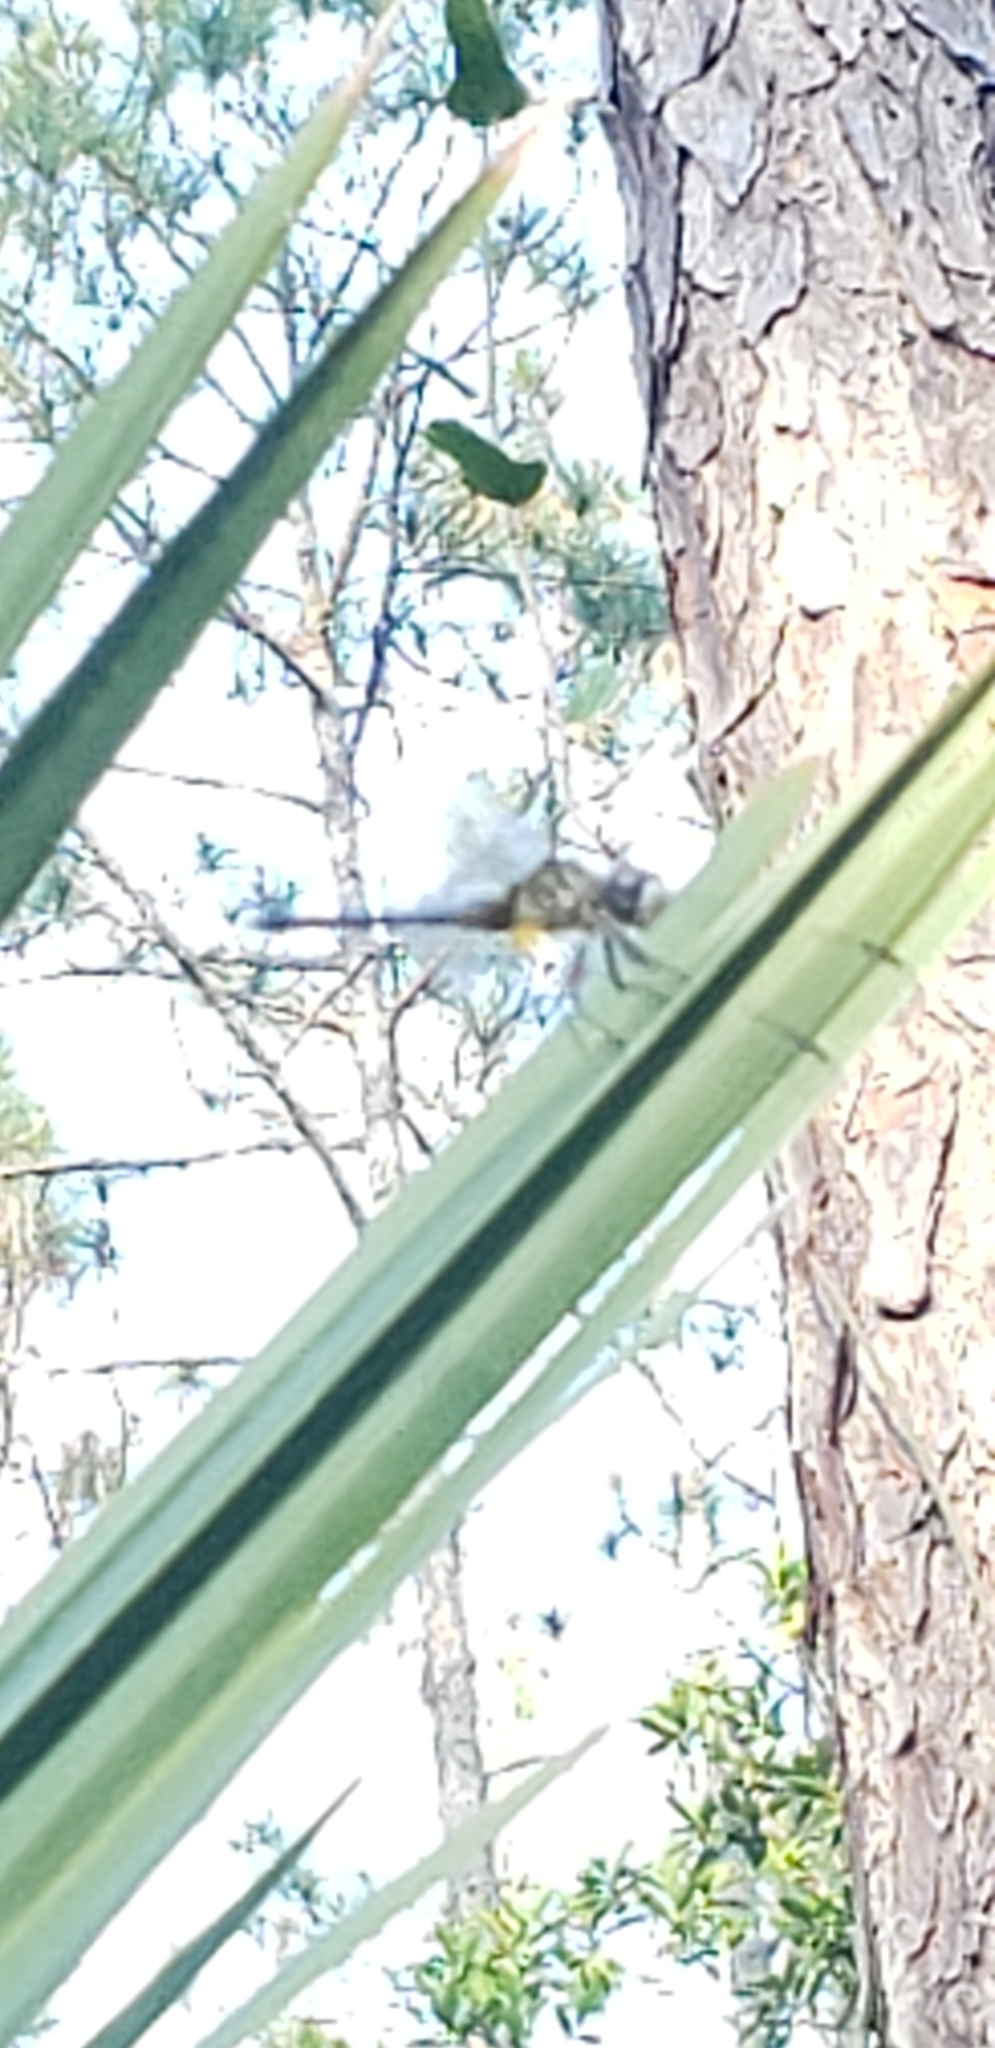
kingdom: Animalia
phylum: Arthropoda
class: Insecta
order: Odonata
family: Libellulidae
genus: Pachydiplax
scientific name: Pachydiplax longipennis
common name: Blue dasher
